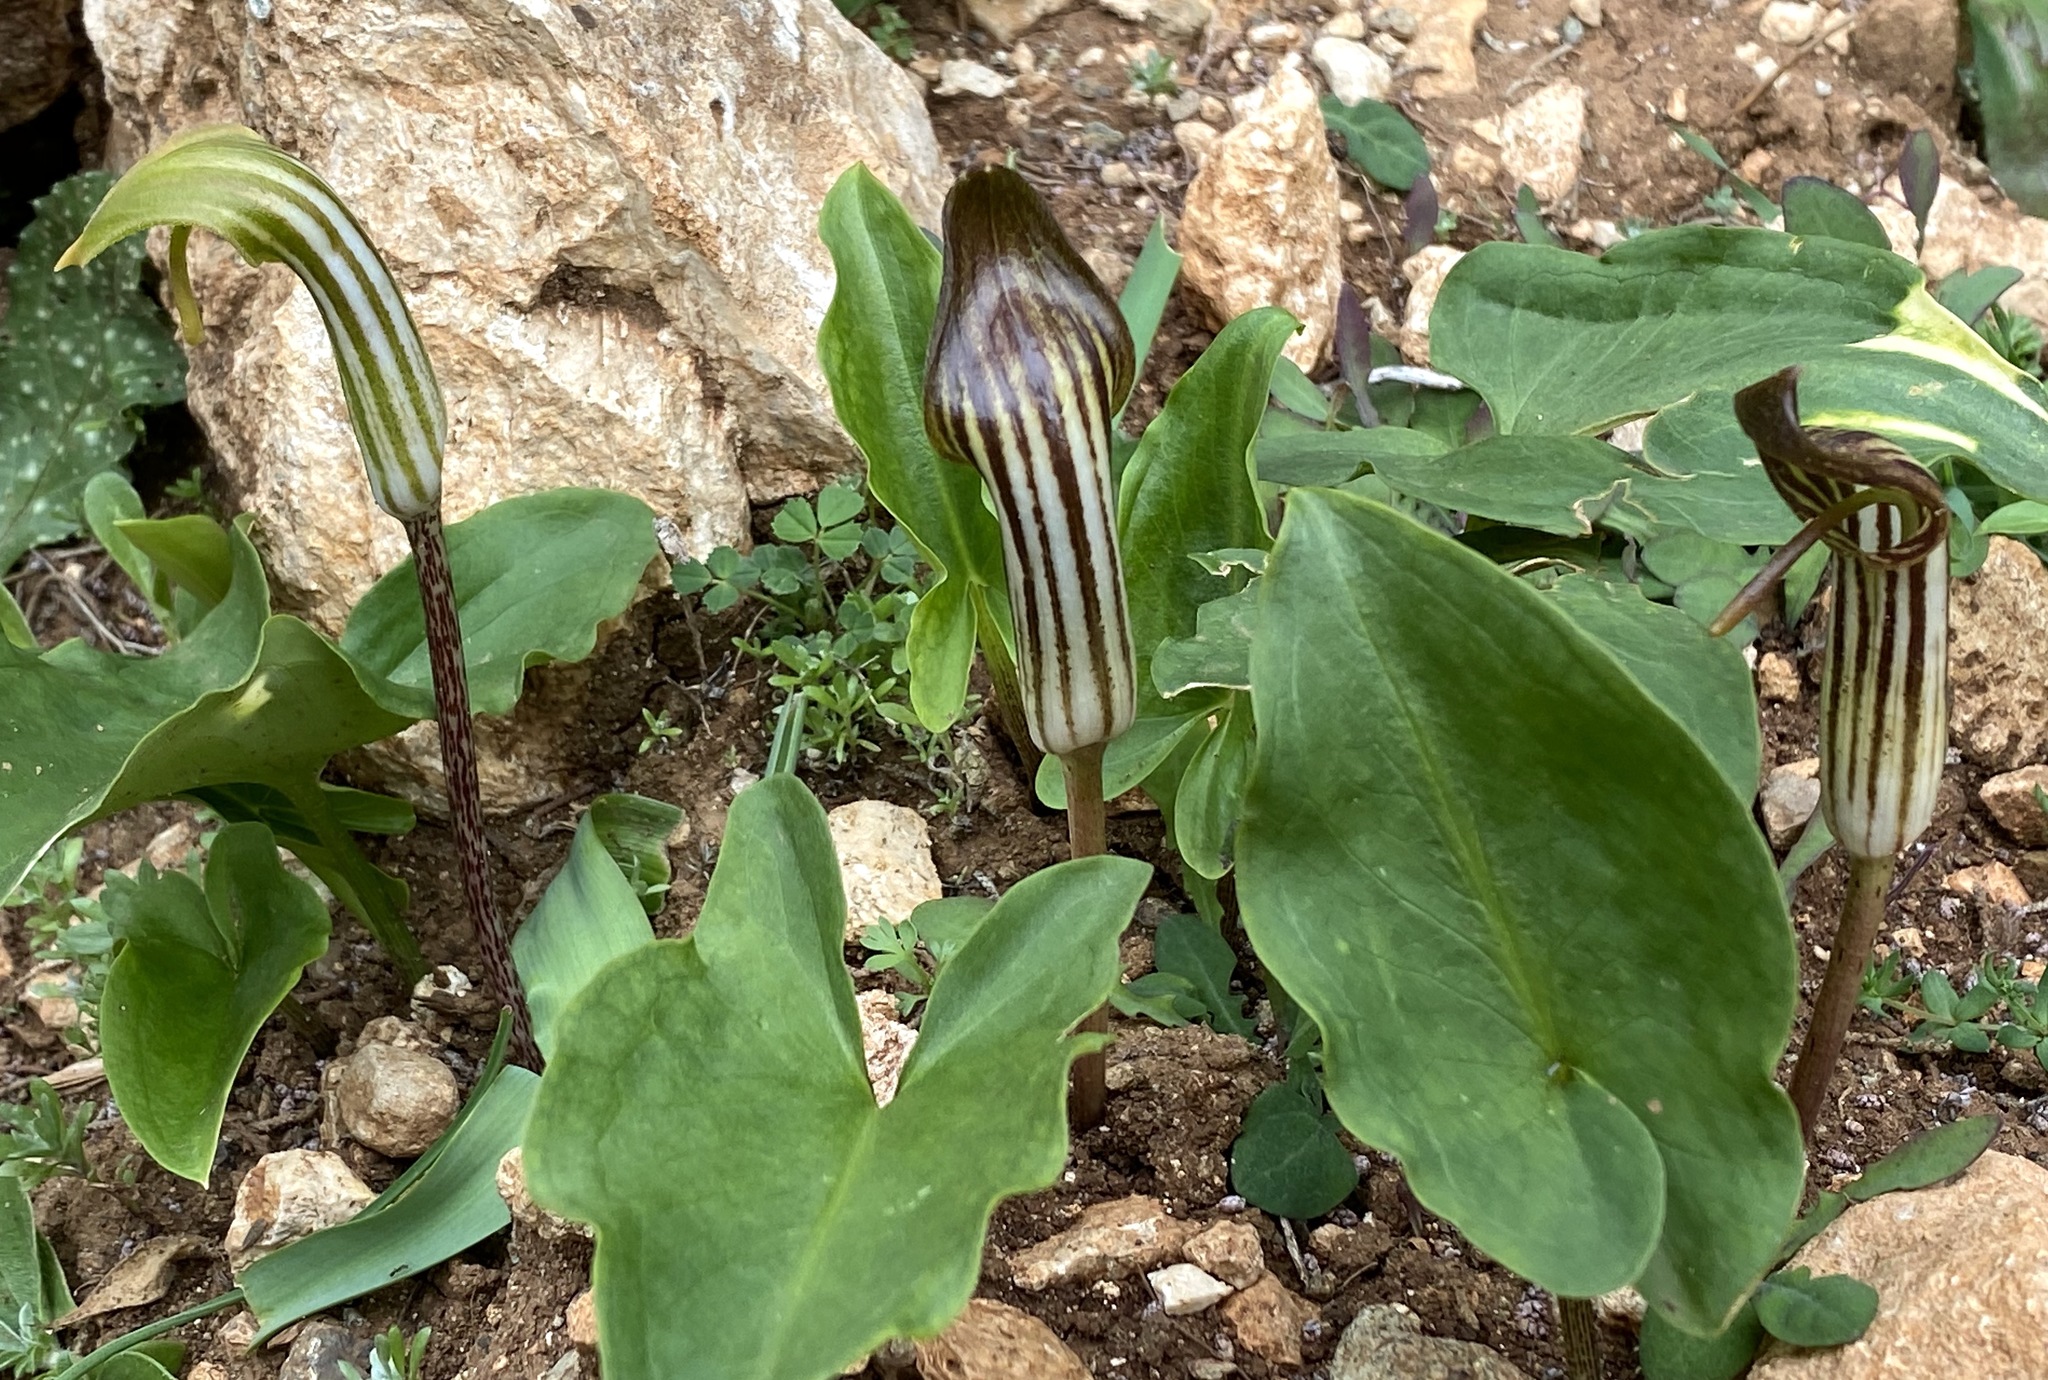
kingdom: Plantae
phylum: Tracheophyta
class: Liliopsida
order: Alismatales
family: Araceae
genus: Arisarum
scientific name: Arisarum vulgare
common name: Common arisarum
